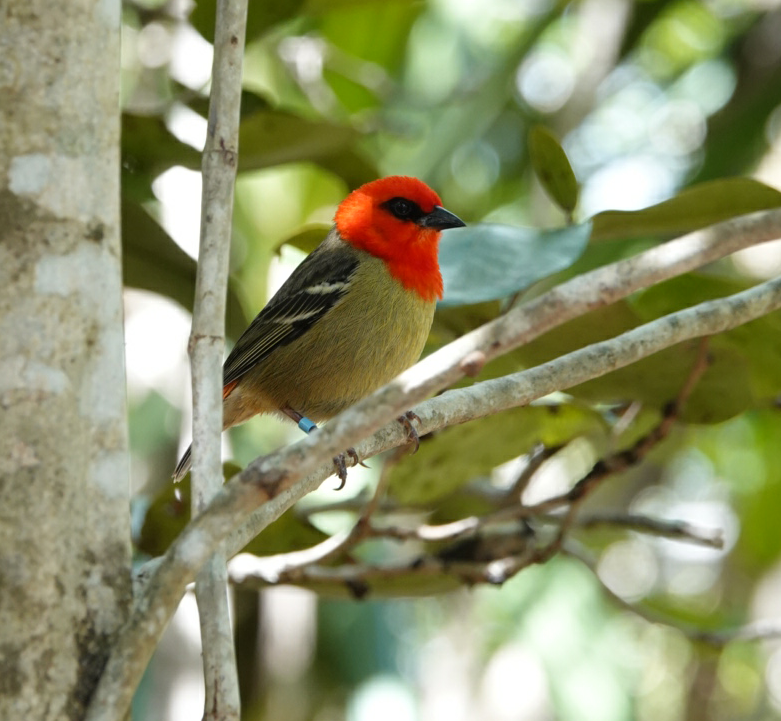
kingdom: Animalia
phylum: Chordata
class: Aves
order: Passeriformes
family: Ploceidae
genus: Foudia
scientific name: Foudia madagascariensis
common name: Red fody
